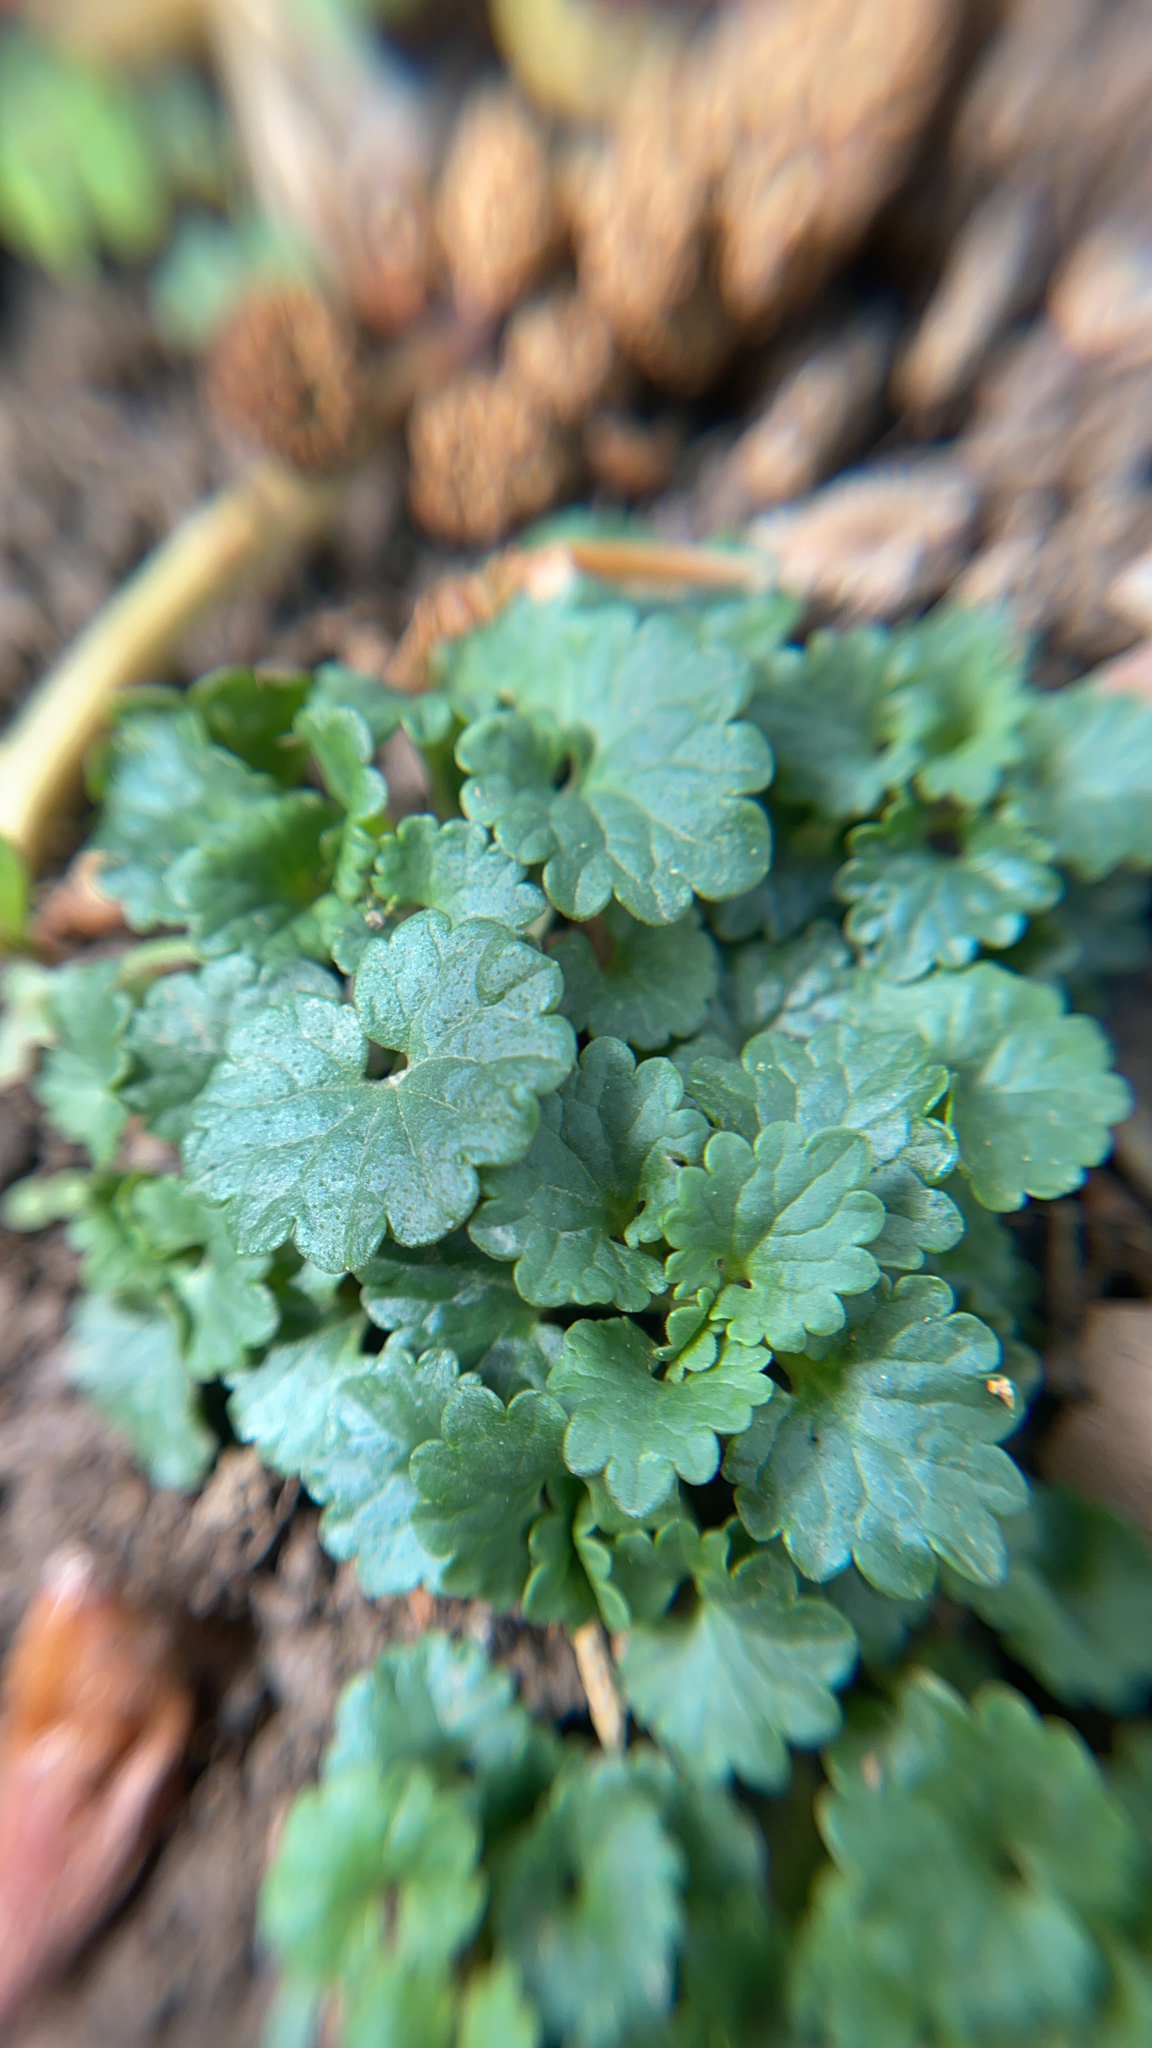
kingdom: Plantae
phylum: Tracheophyta
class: Magnoliopsida
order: Lamiales
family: Lamiaceae
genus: Glechoma
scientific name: Glechoma hederacea
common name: Ground ivy
